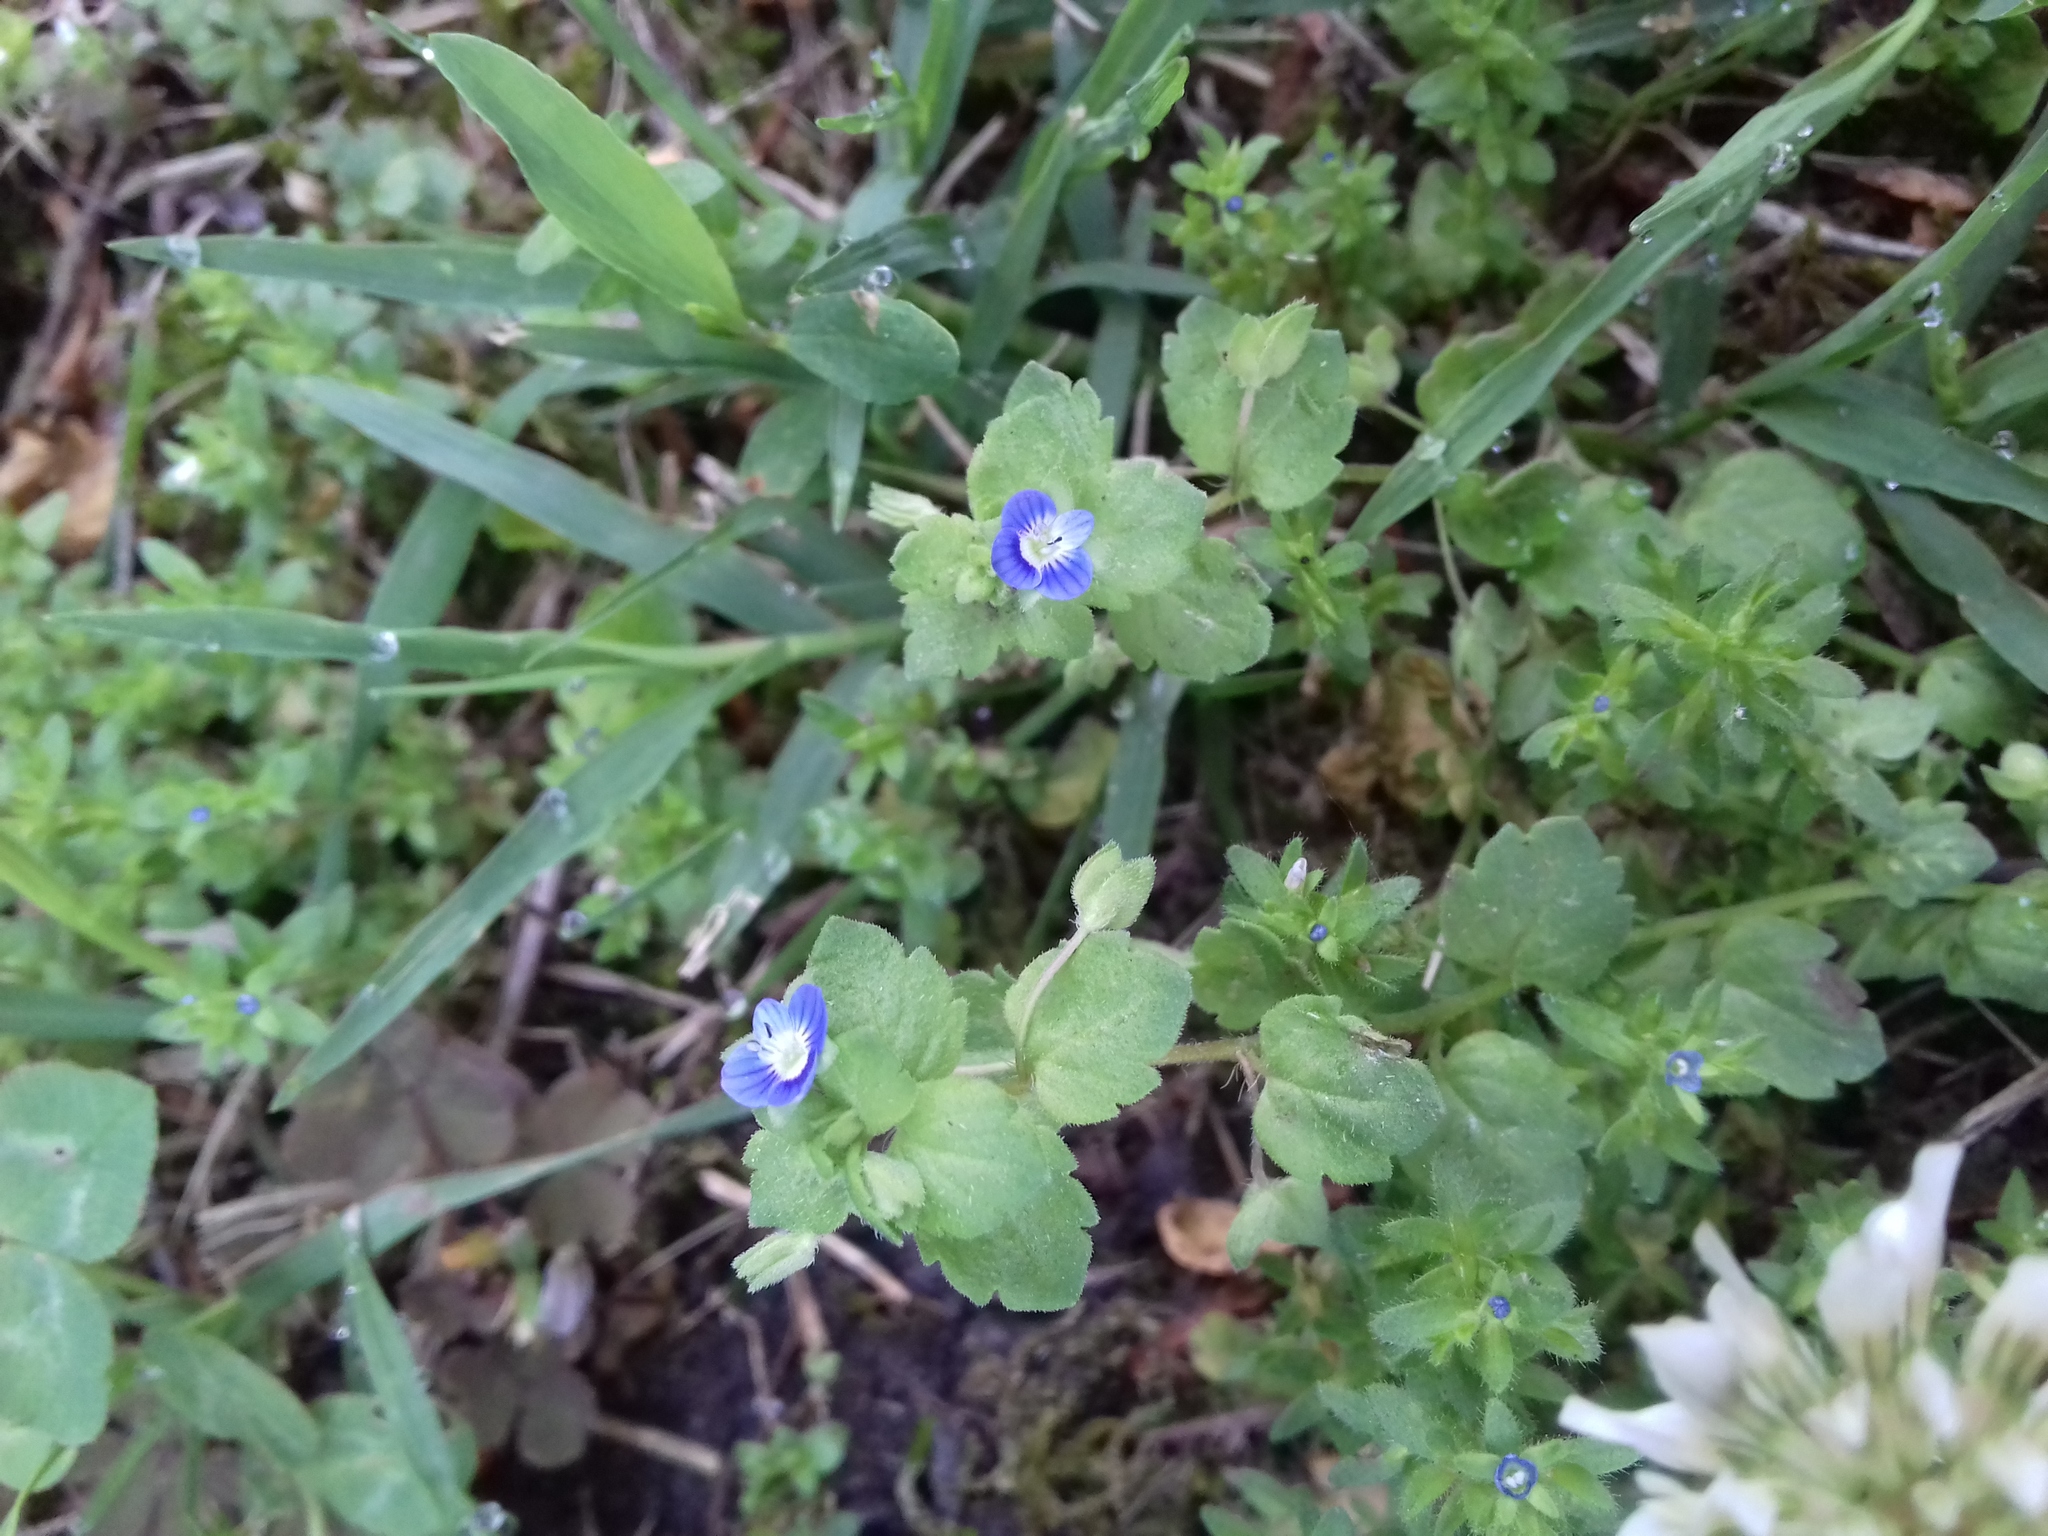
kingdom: Plantae
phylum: Tracheophyta
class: Magnoliopsida
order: Lamiales
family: Plantaginaceae
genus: Veronica
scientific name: Veronica persica
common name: Common field-speedwell
